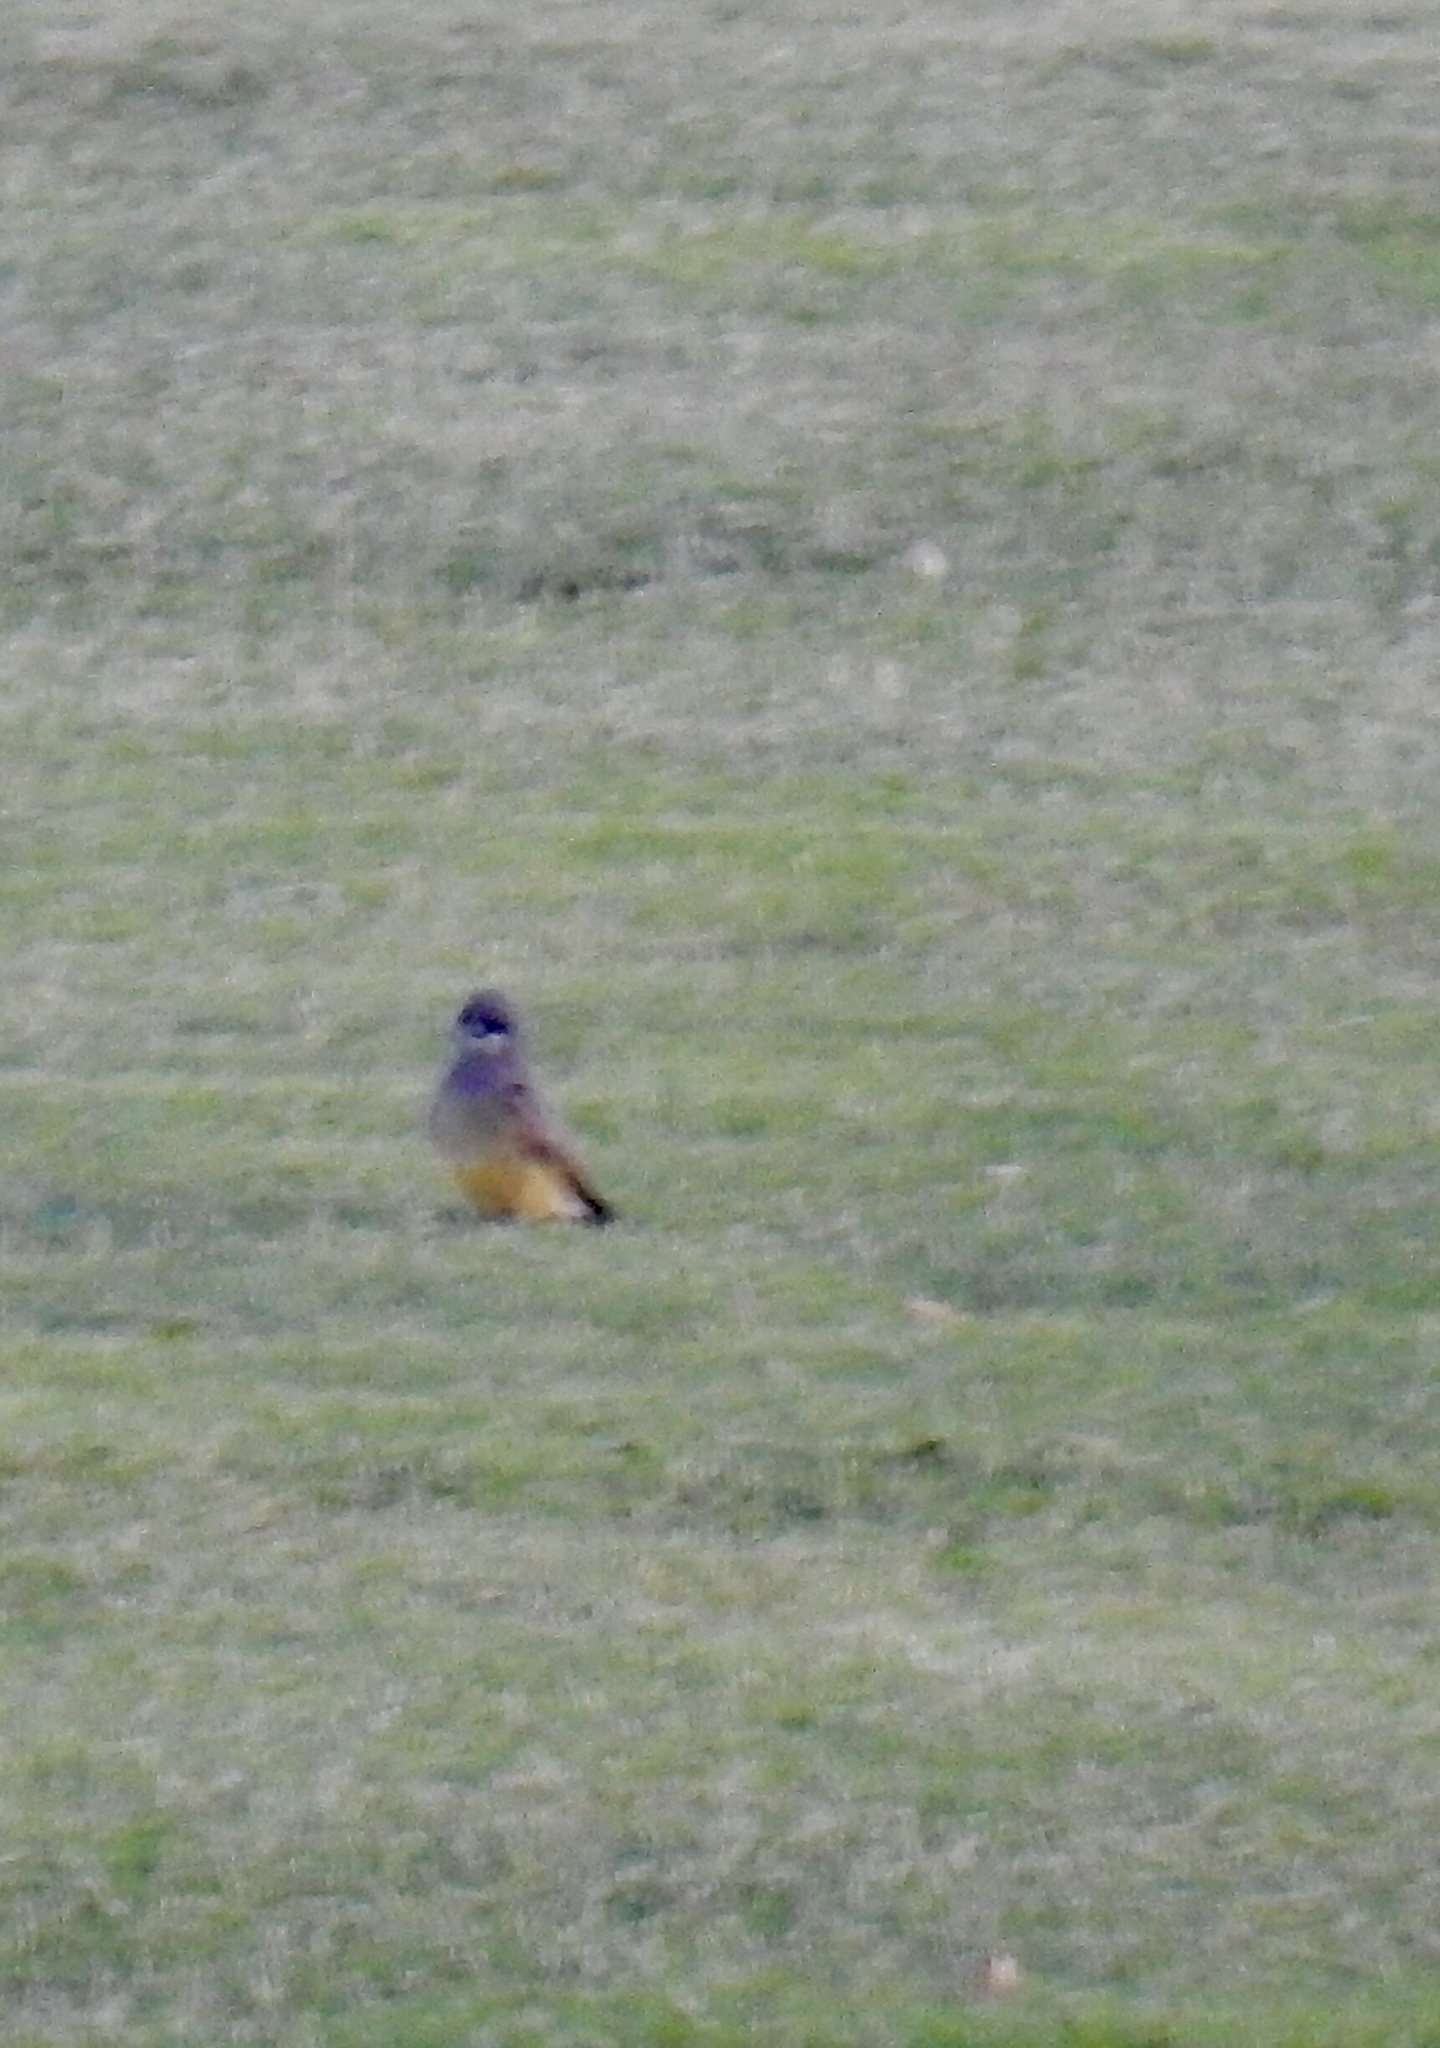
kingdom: Animalia
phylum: Chordata
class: Aves
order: Passeriformes
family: Tyrannidae
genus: Tyrannus
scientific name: Tyrannus vociferans
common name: Cassin's kingbird
